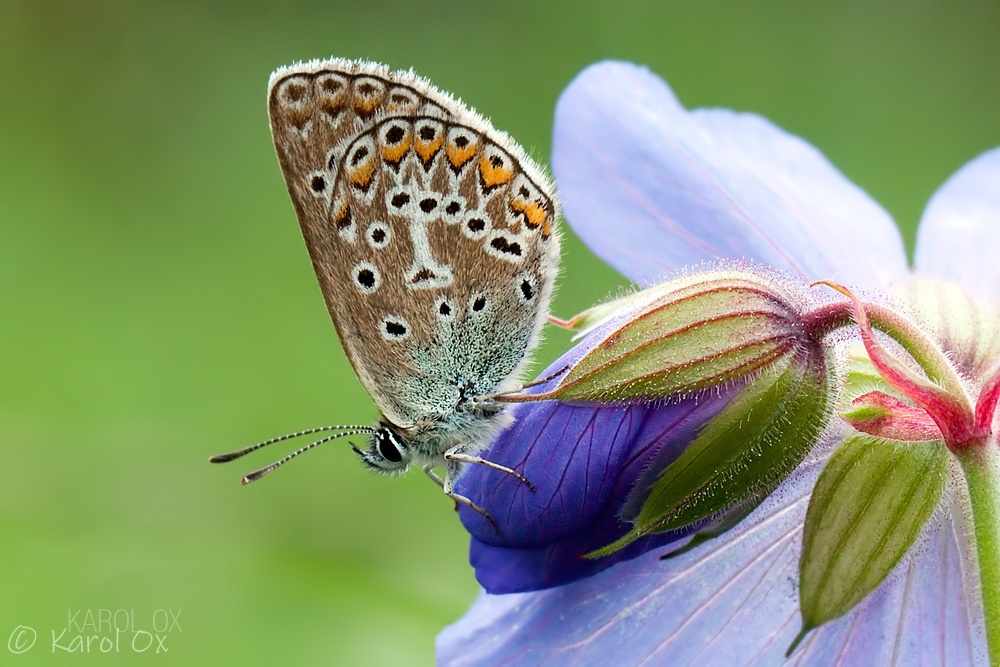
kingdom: Animalia
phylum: Arthropoda
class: Insecta
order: Lepidoptera
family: Lycaenidae
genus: Eumedonia
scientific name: Eumedonia eumedon
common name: Geranium argus
